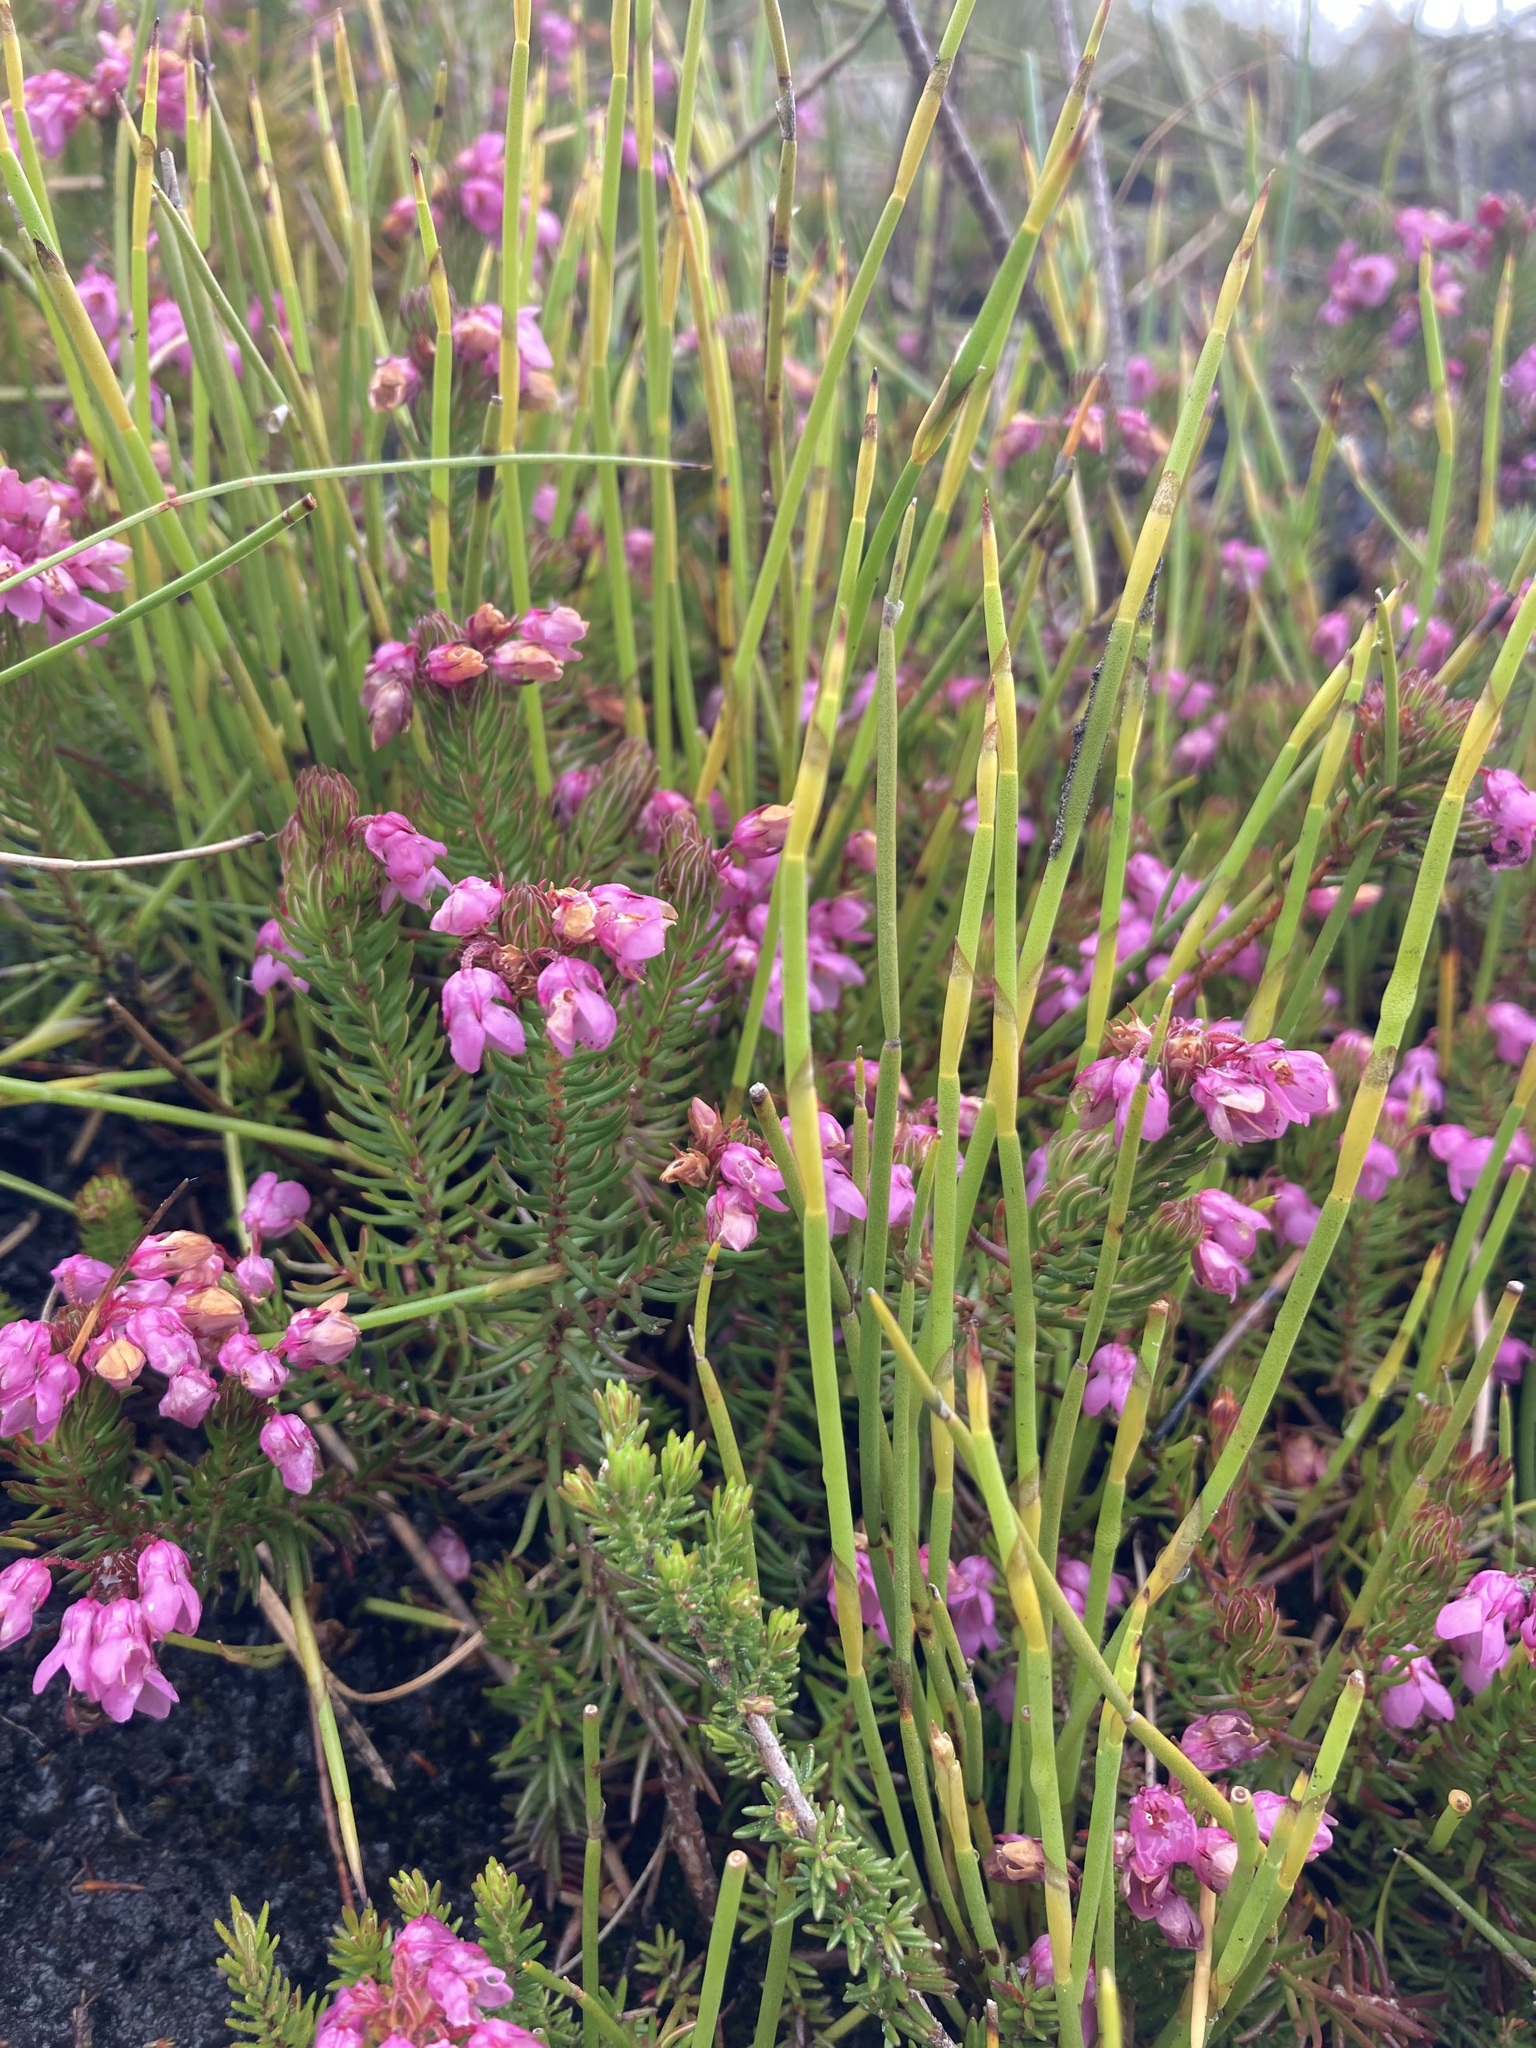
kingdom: Plantae
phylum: Tracheophyta
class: Magnoliopsida
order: Ericales
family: Ericaceae
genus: Erica
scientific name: Erica cubica
